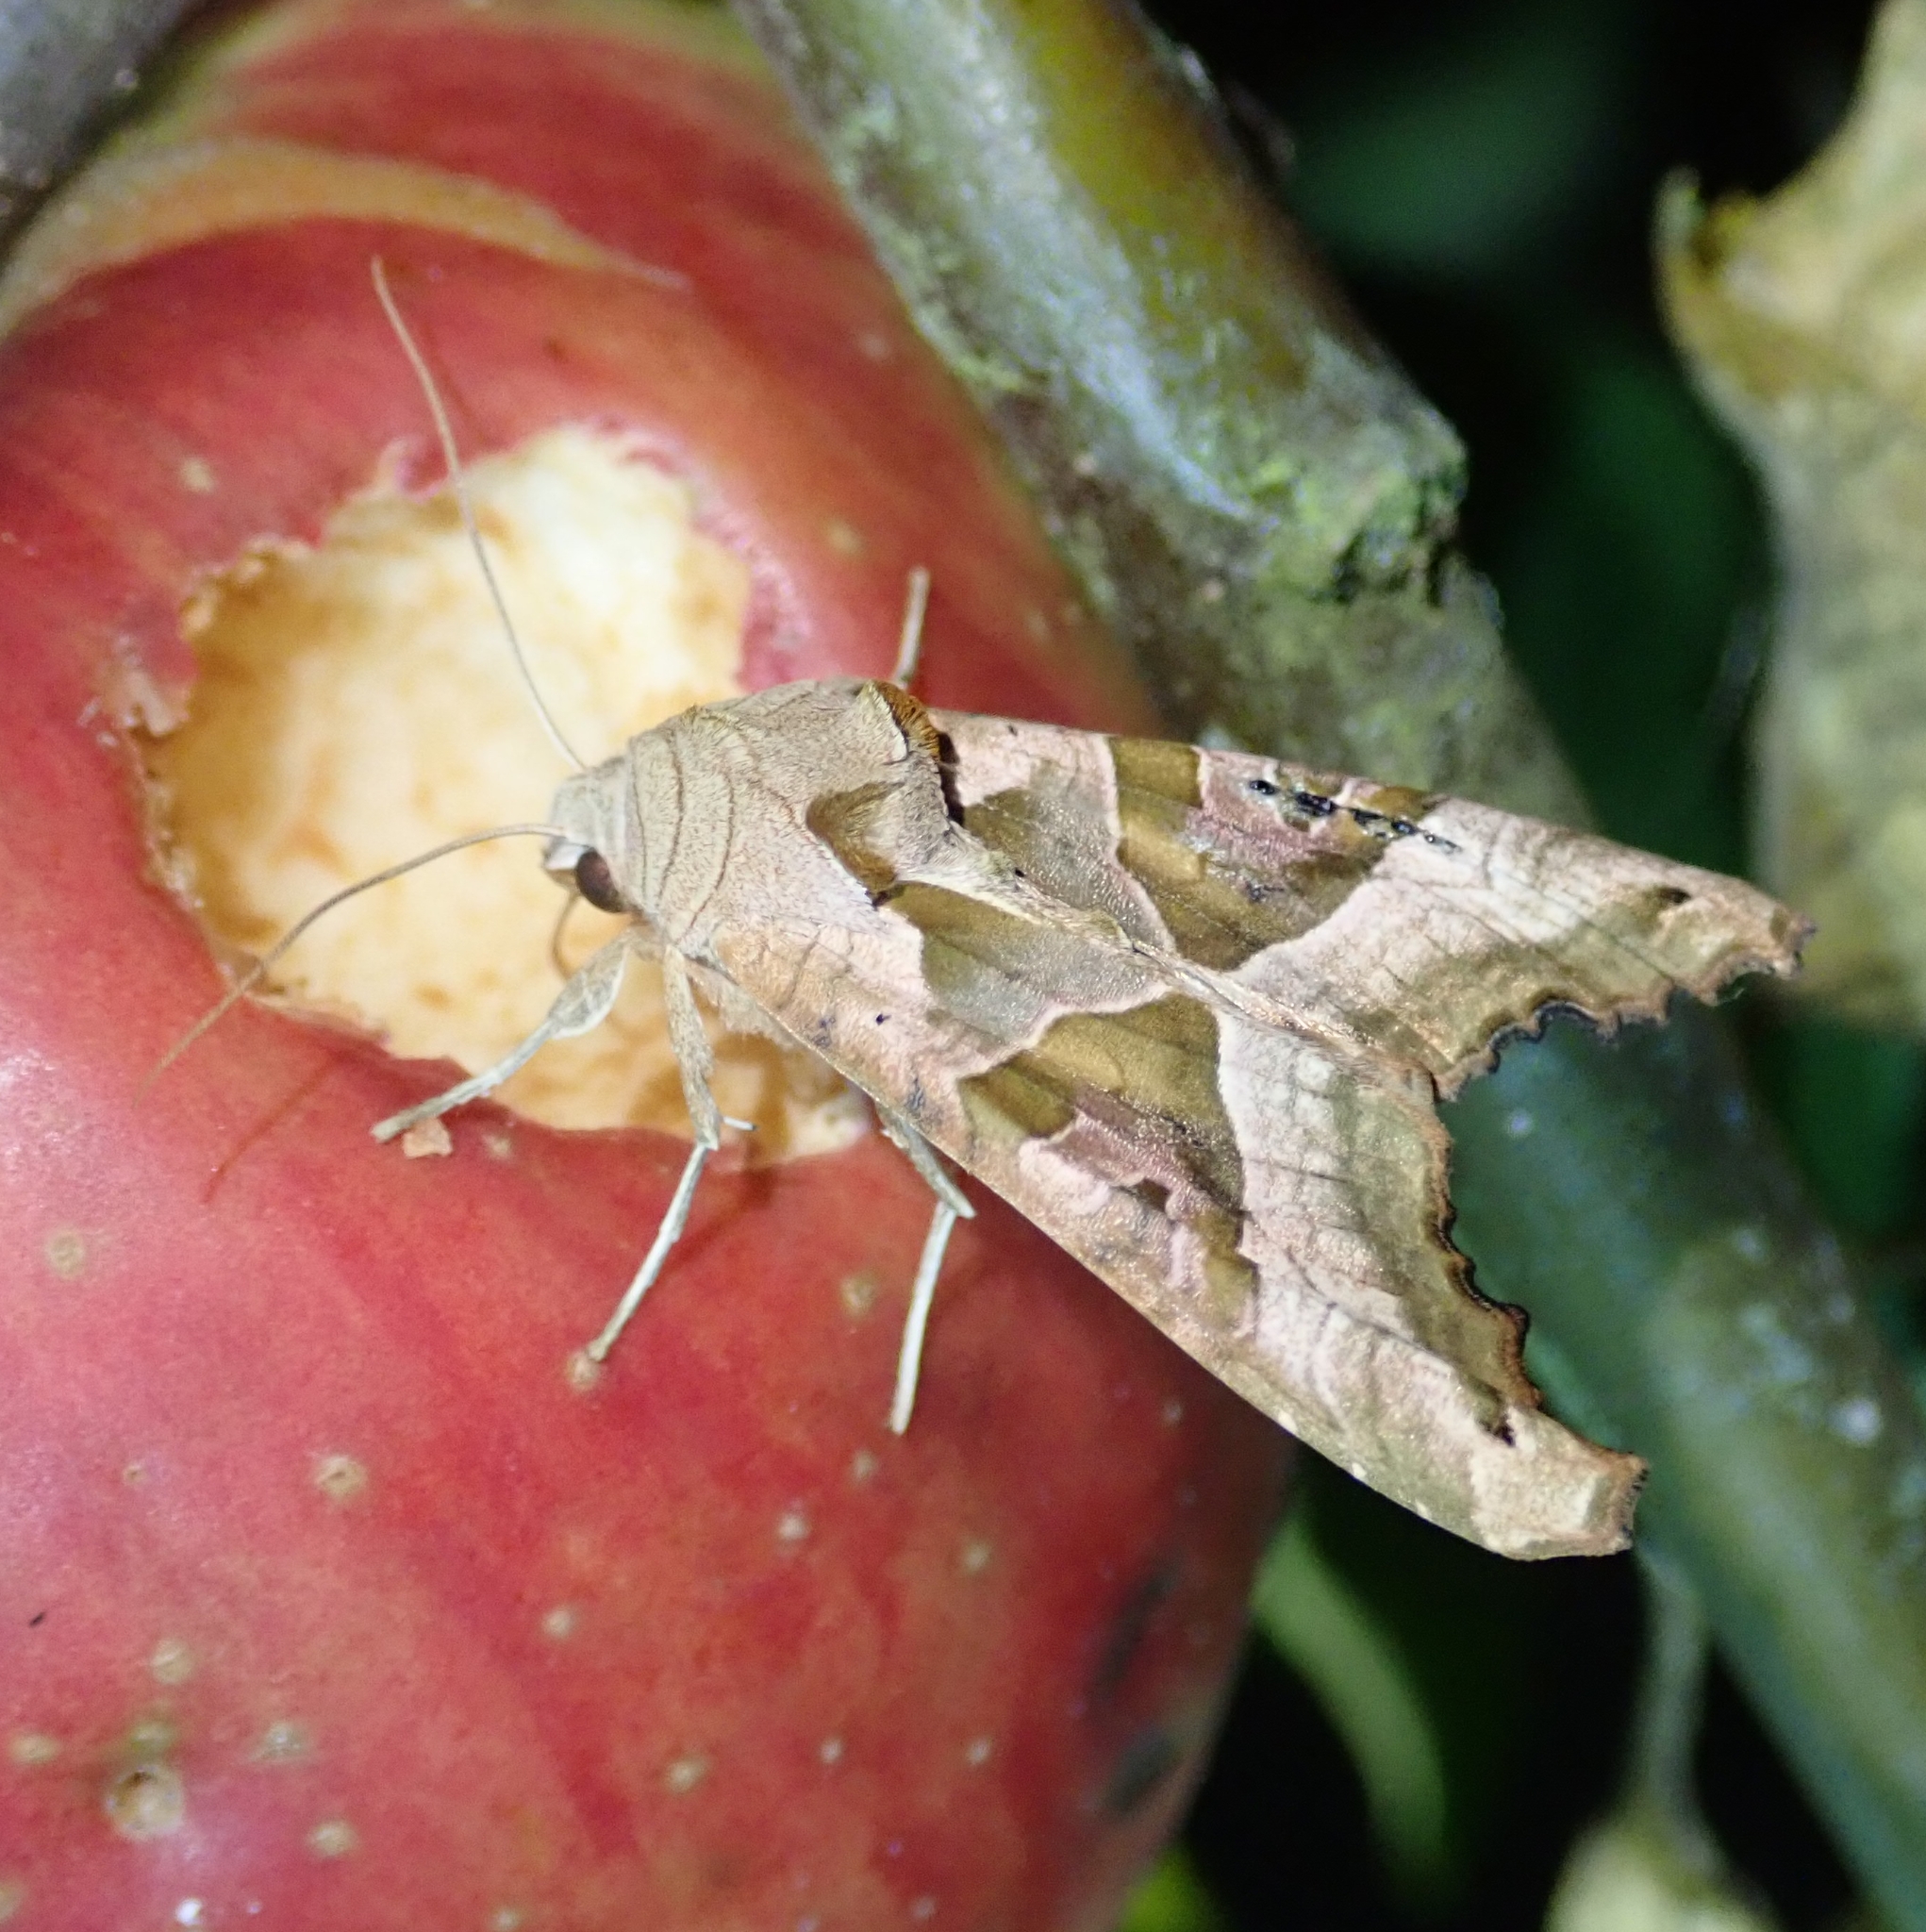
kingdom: Animalia
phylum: Arthropoda
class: Insecta
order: Lepidoptera
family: Noctuidae
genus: Phlogophora
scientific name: Phlogophora meticulosa
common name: Angle shades
